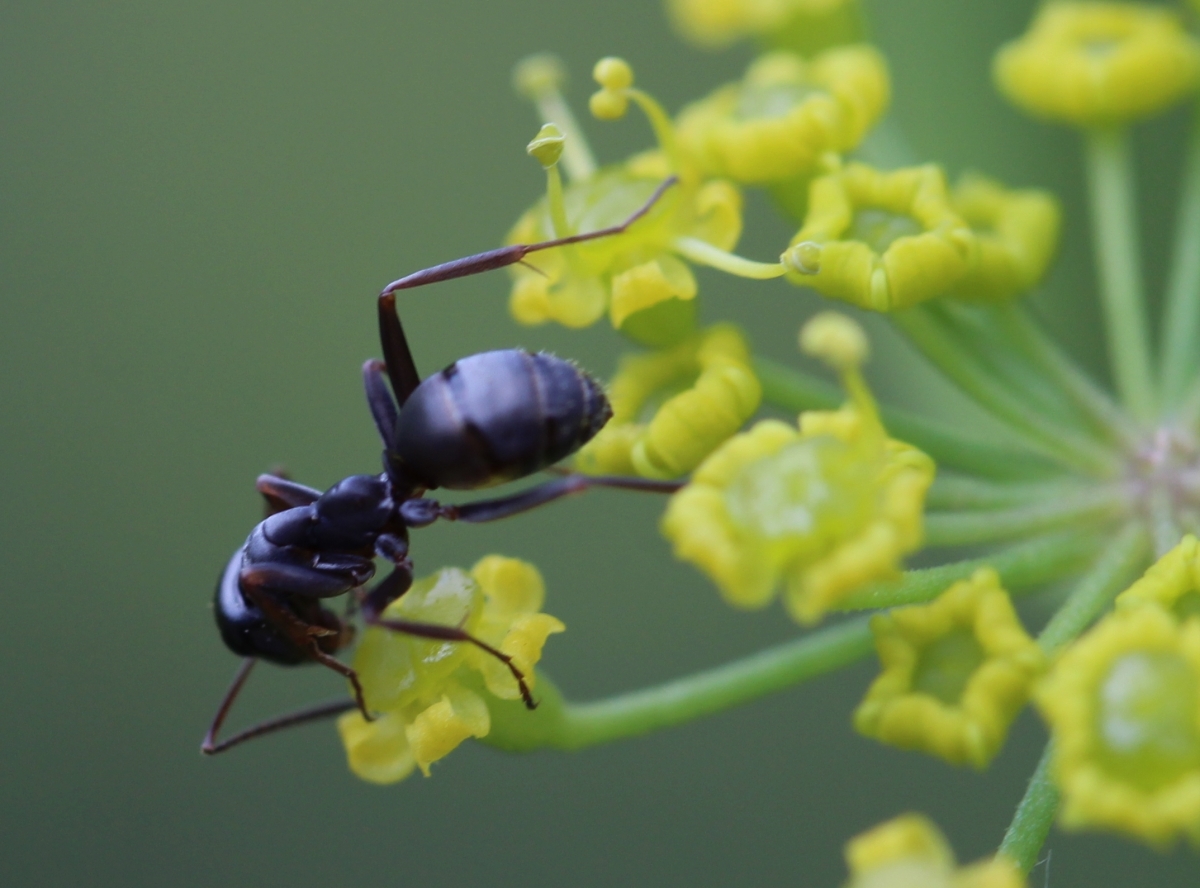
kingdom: Animalia
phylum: Arthropoda
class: Insecta
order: Hymenoptera
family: Formicidae
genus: Formica
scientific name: Formica cunicularia
